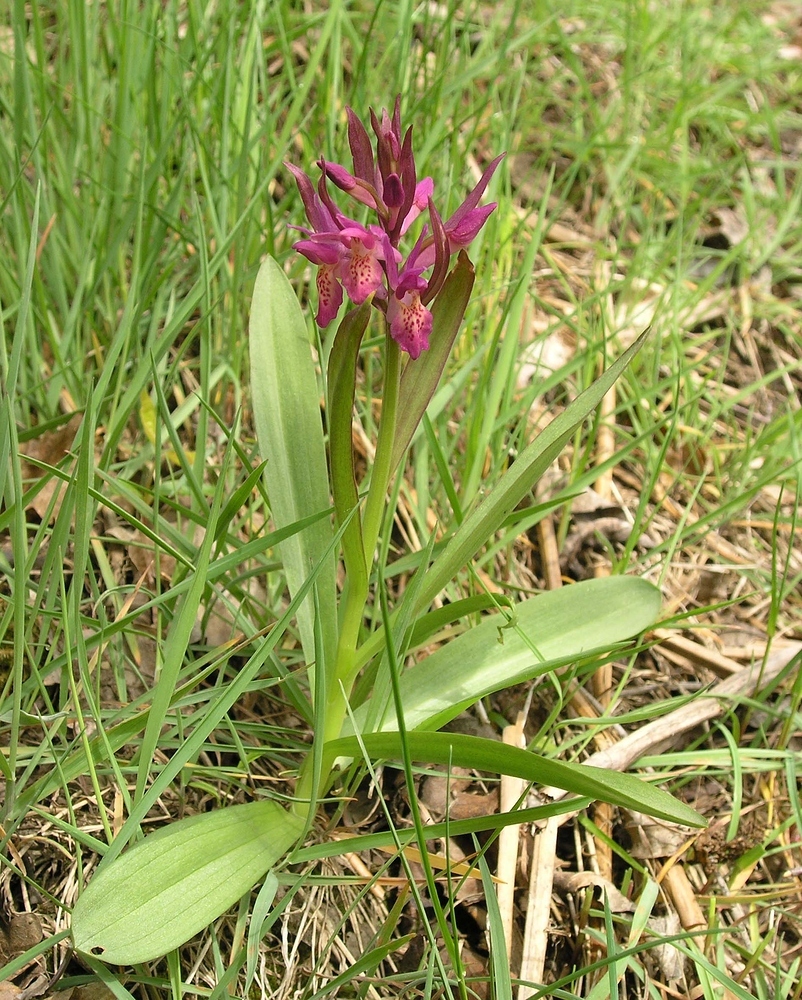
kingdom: Plantae
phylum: Tracheophyta
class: Liliopsida
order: Asparagales
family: Orchidaceae
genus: Dactylorhiza
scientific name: Dactylorhiza sambucina
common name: Elder-flowered orchid
